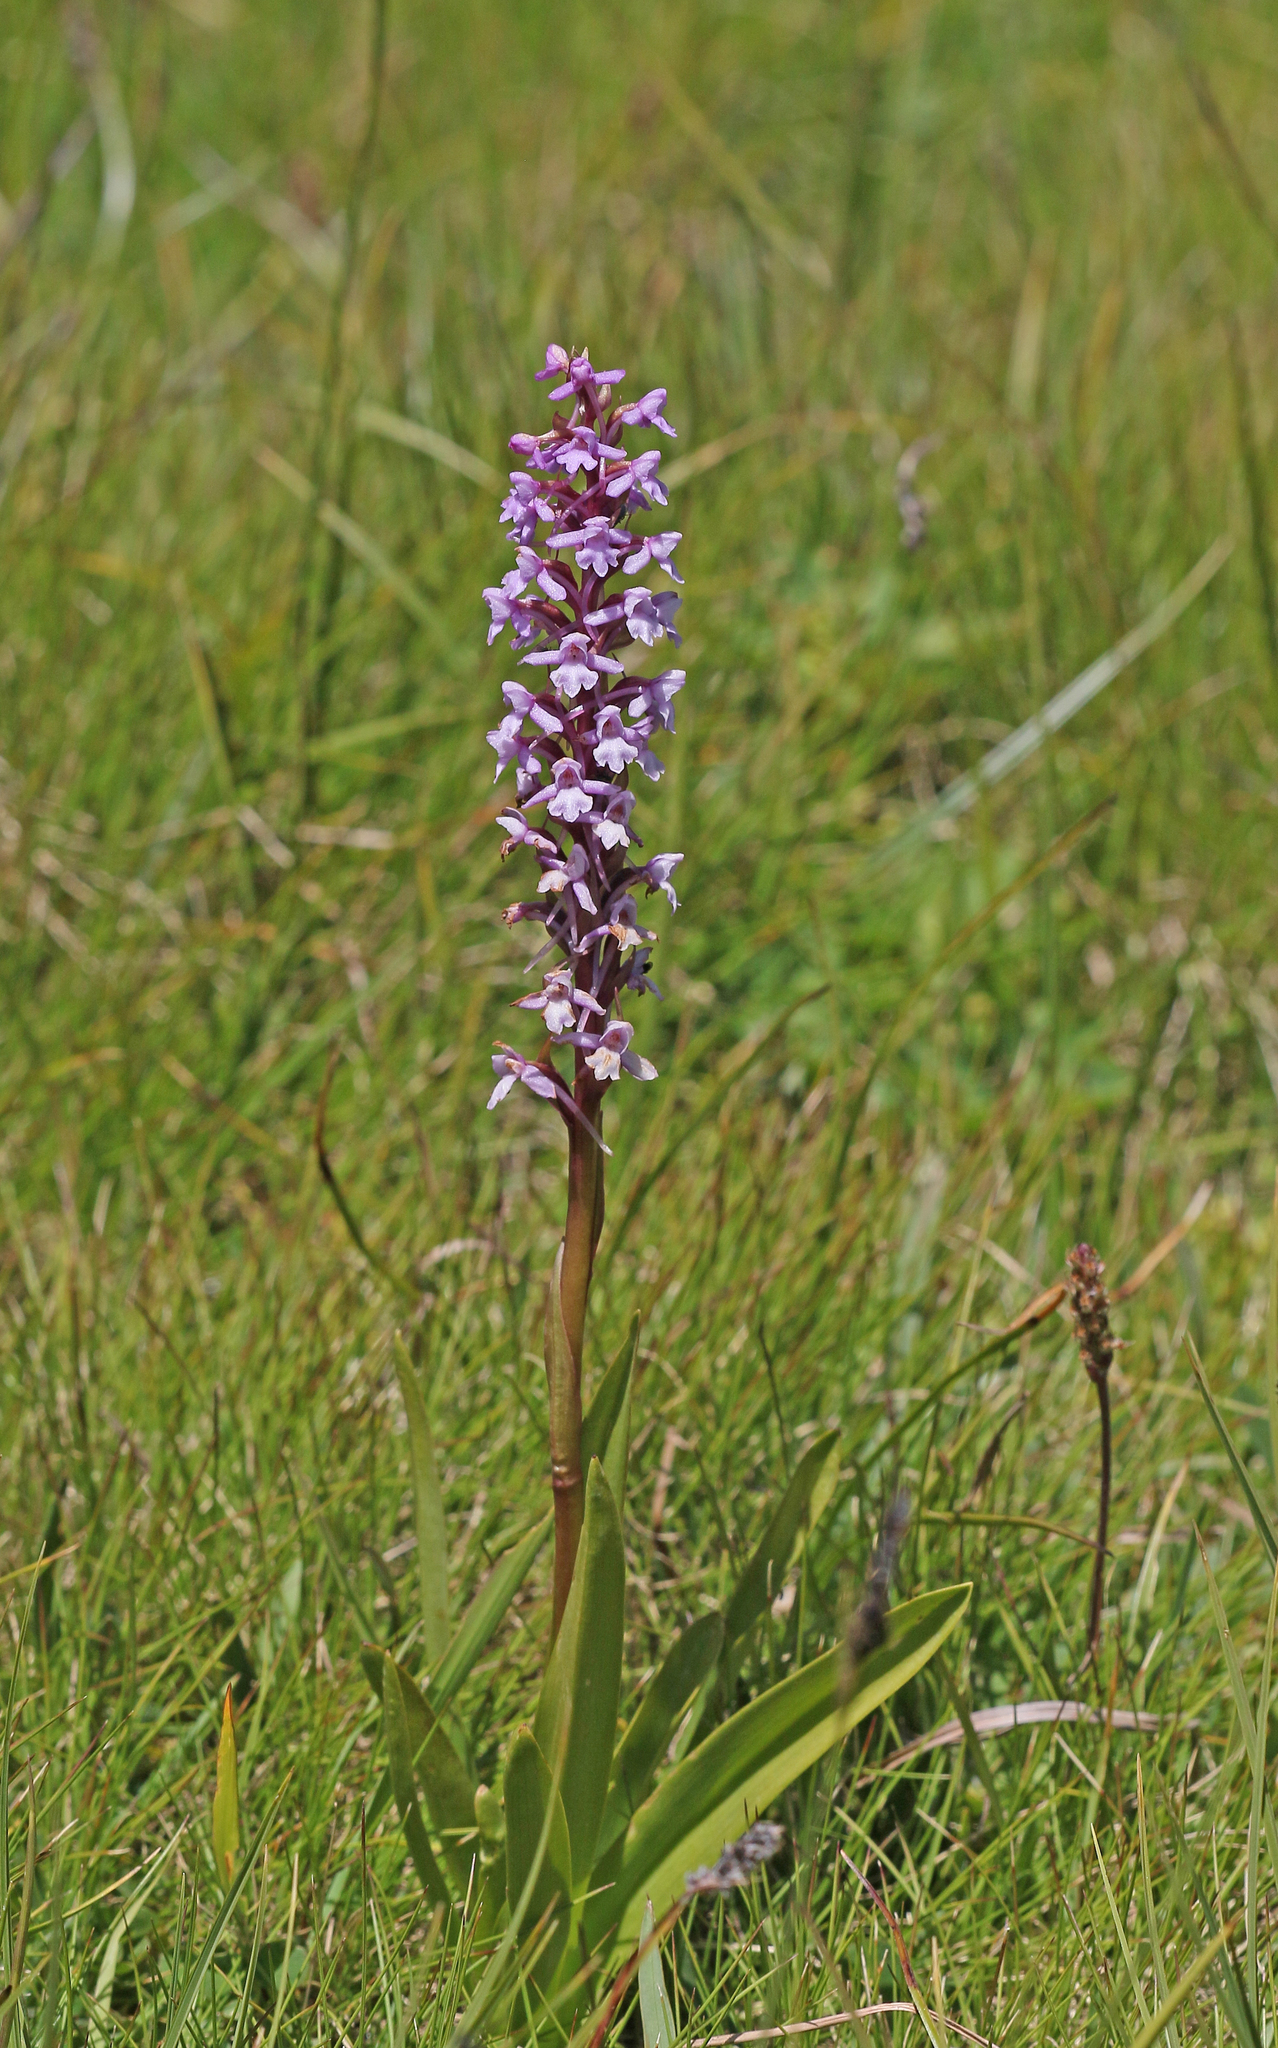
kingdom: Plantae
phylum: Tracheophyta
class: Liliopsida
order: Asparagales
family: Orchidaceae
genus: Gymnadenia
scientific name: Gymnadenia conopsea
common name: Fragrant orchid
